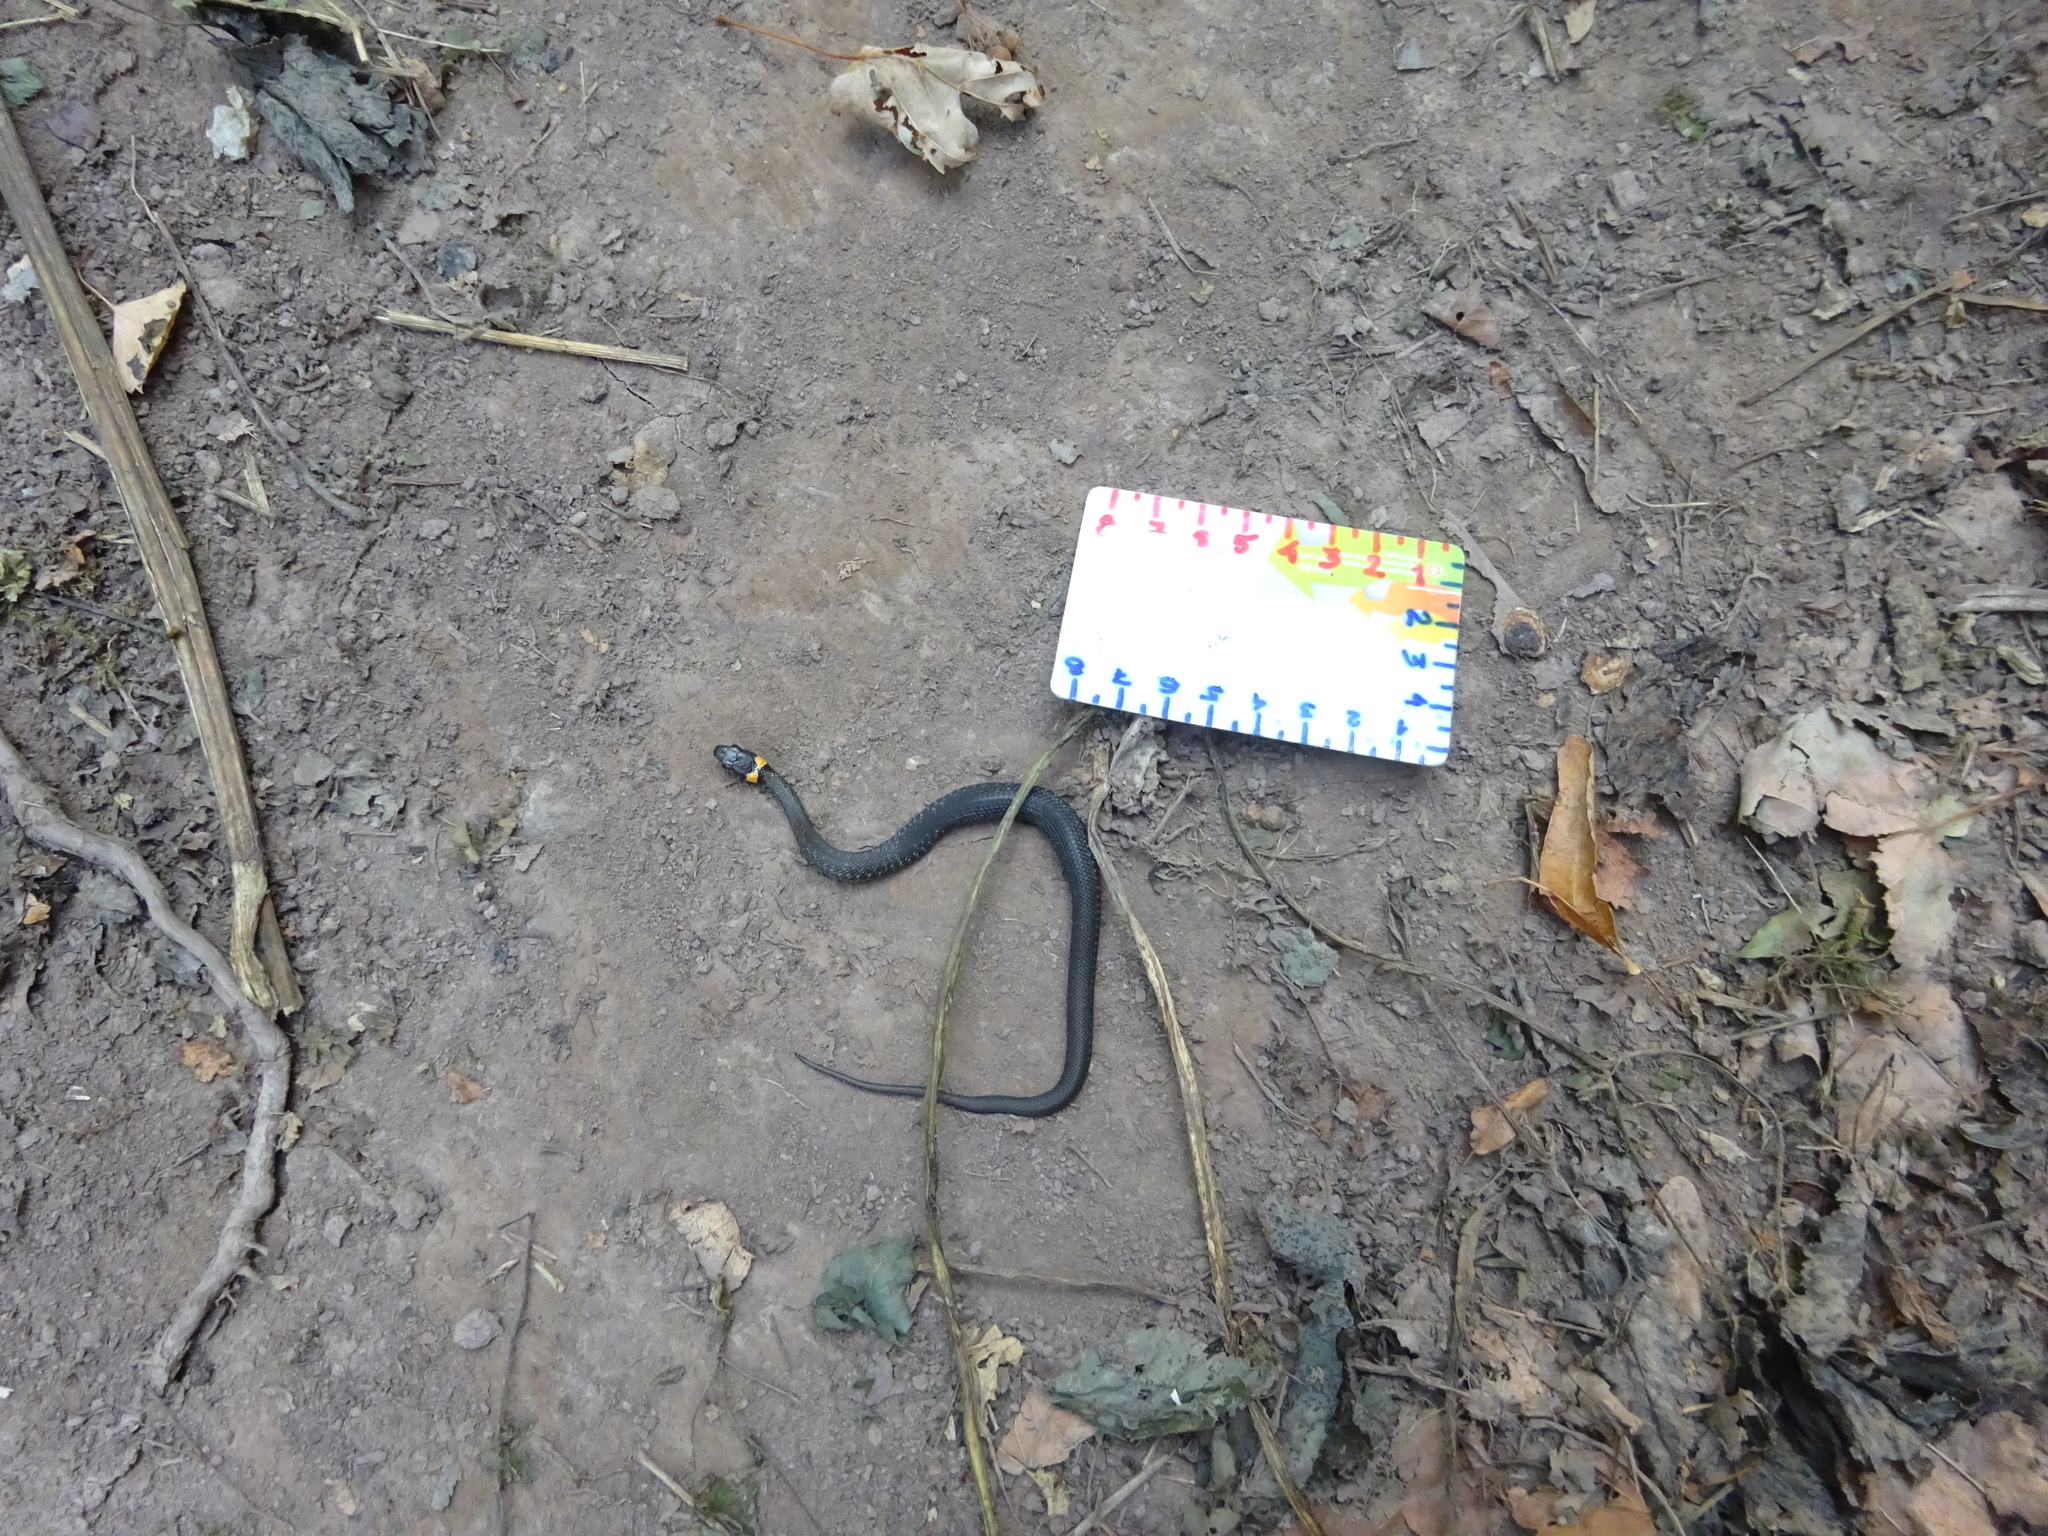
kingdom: Animalia
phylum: Chordata
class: Squamata
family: Colubridae
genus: Natrix
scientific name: Natrix natrix
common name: Grass snake
